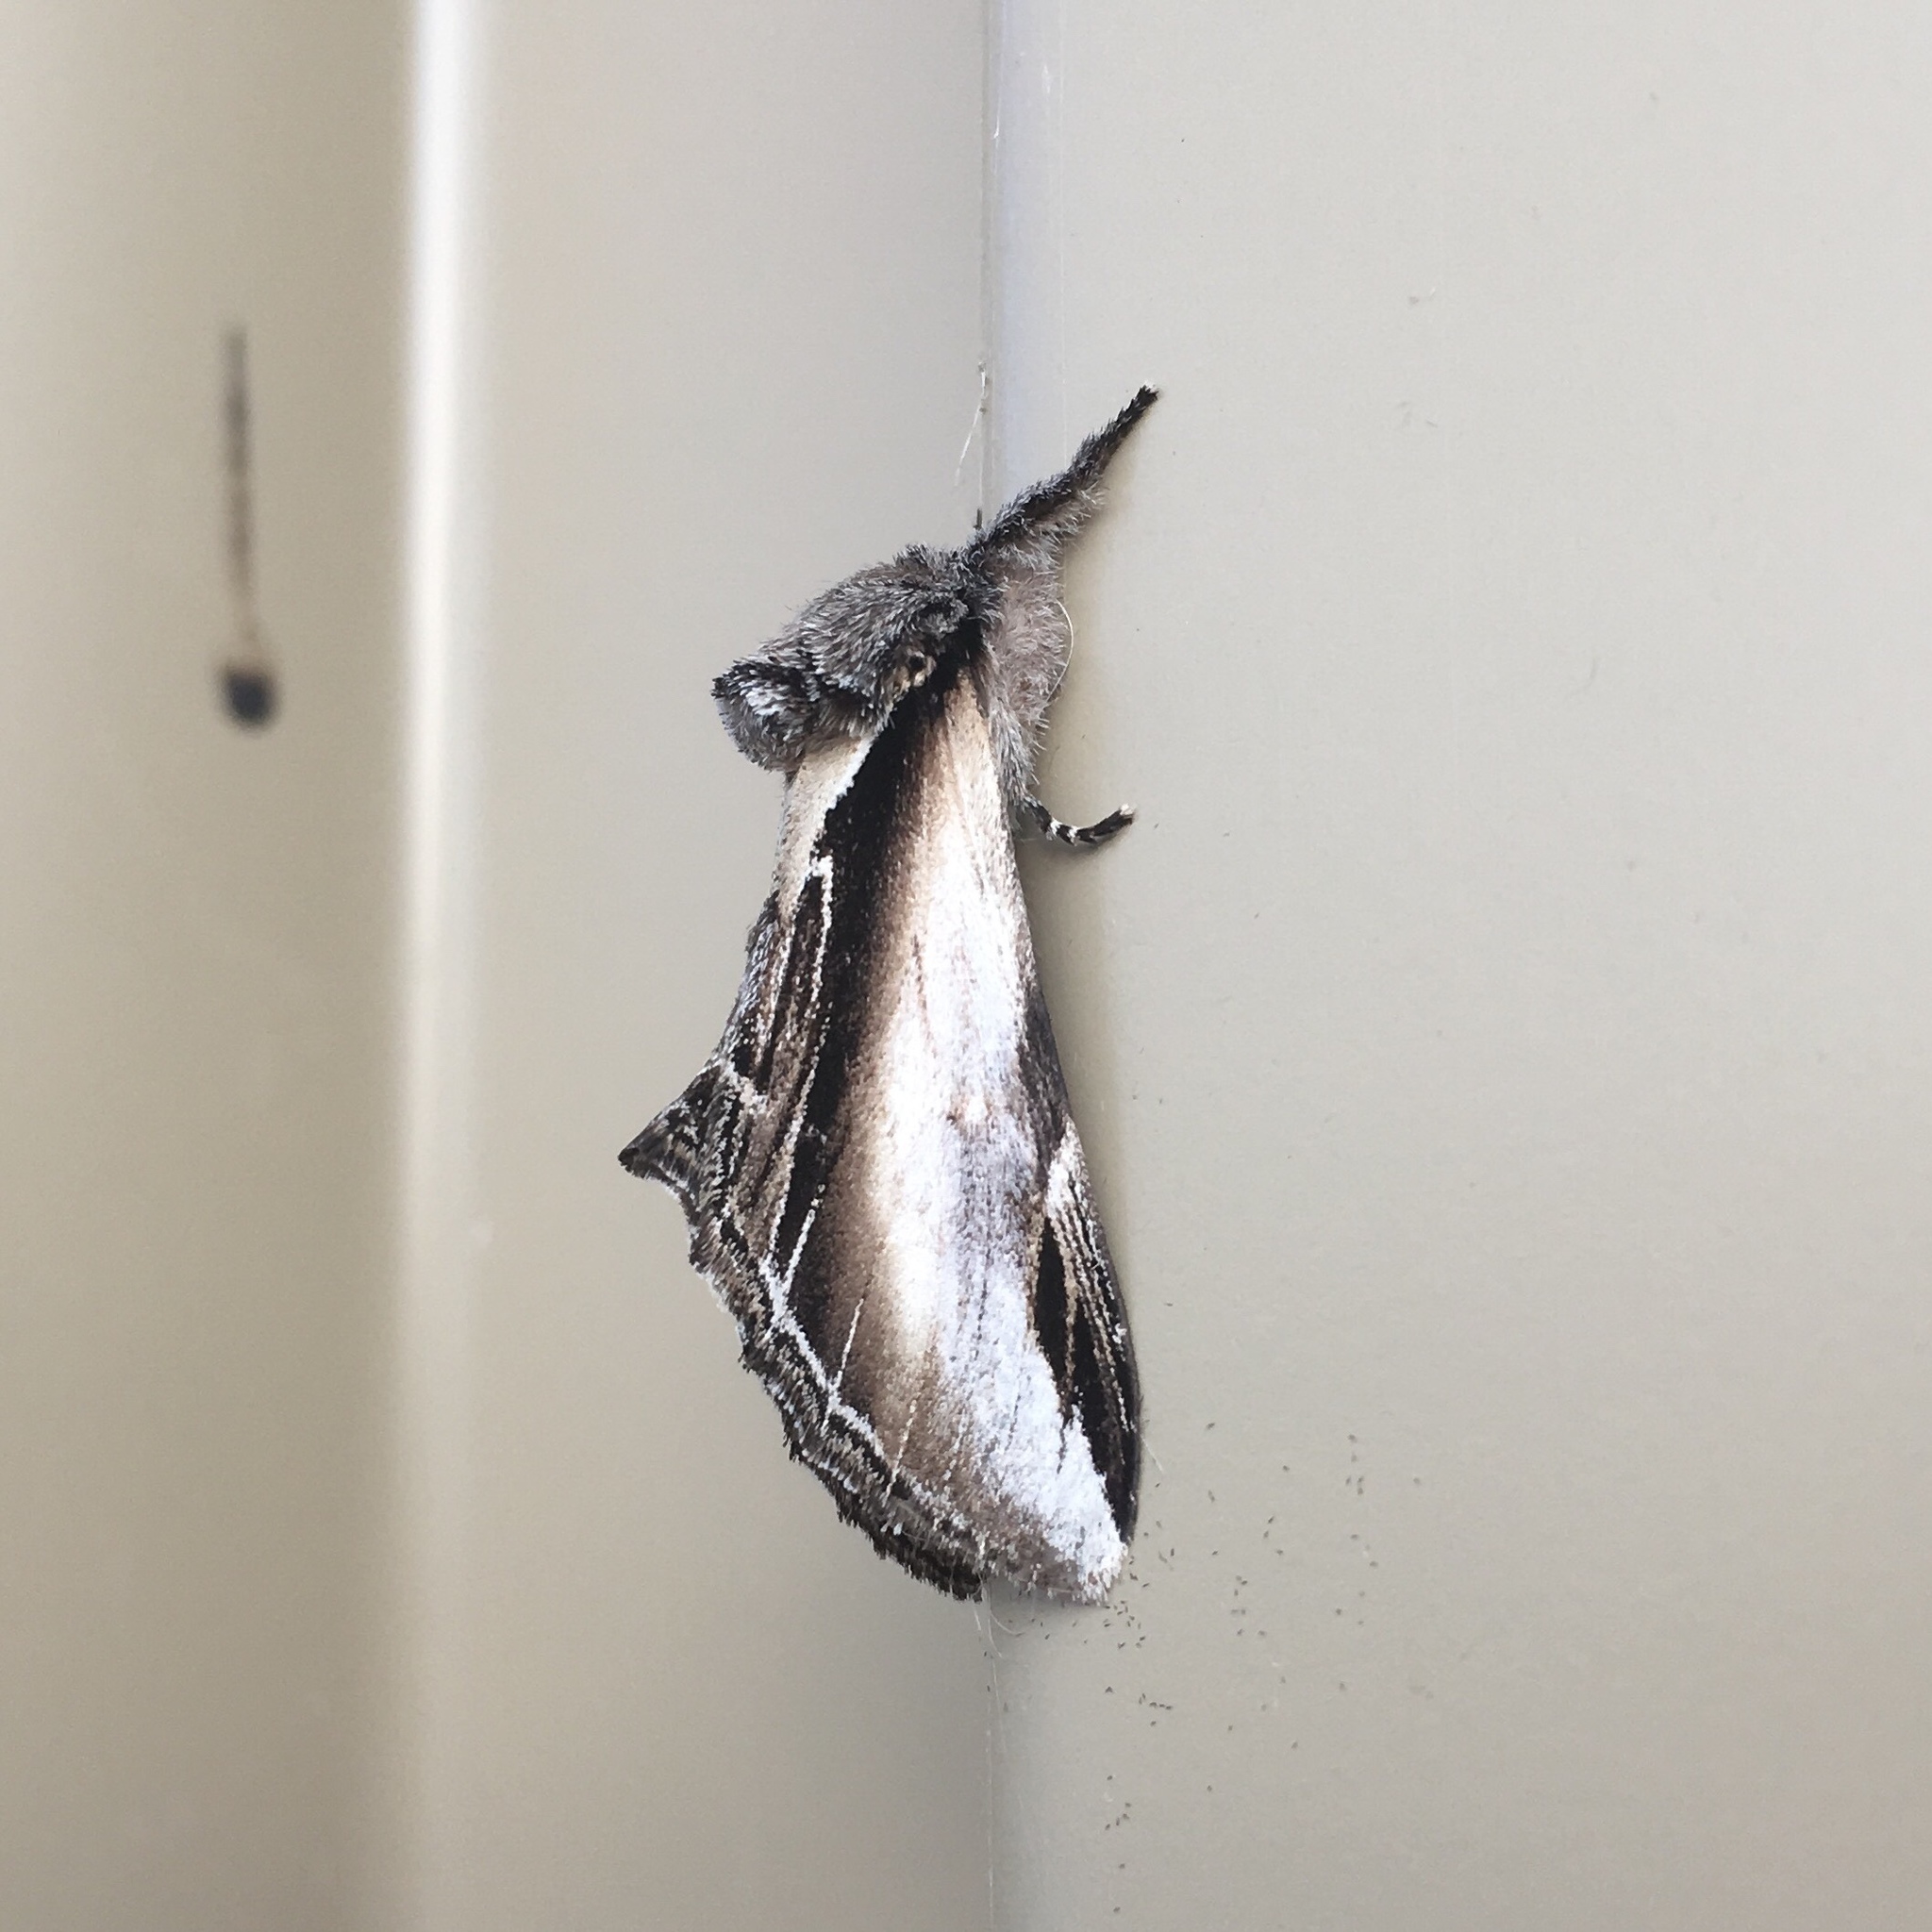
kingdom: Animalia
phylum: Arthropoda
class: Insecta
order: Lepidoptera
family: Notodontidae
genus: Pheosia
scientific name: Pheosia rimosa
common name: Black-rimmed prominent
